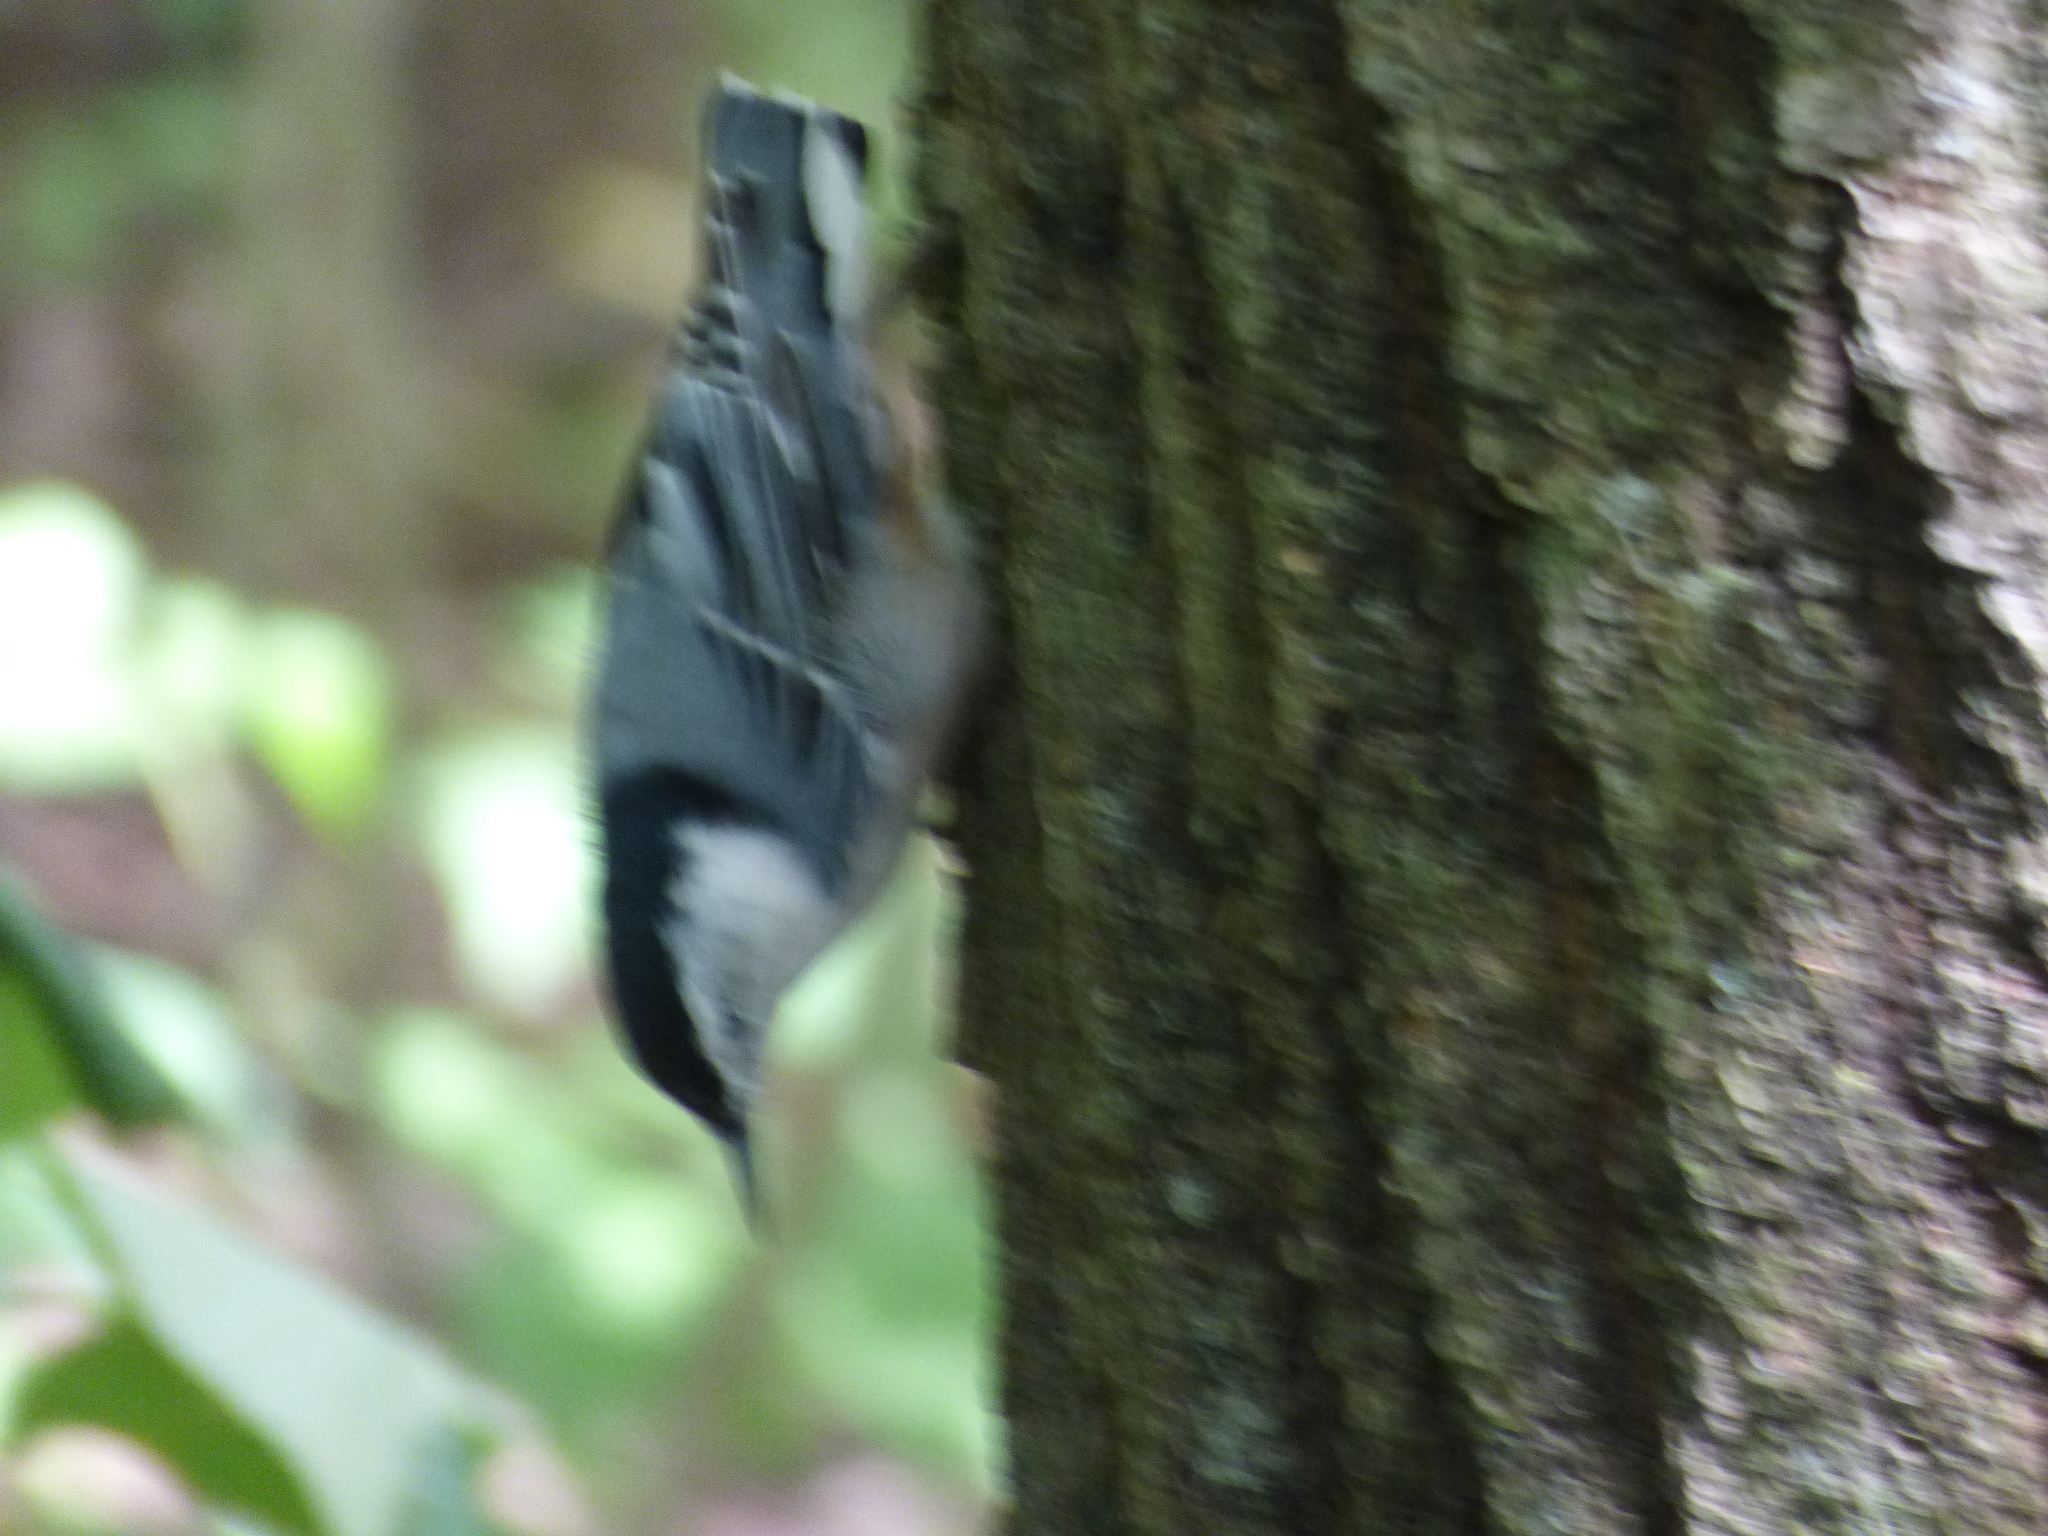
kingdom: Animalia
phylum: Chordata
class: Aves
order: Passeriformes
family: Sittidae
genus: Sitta
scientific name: Sitta carolinensis
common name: White-breasted nuthatch
